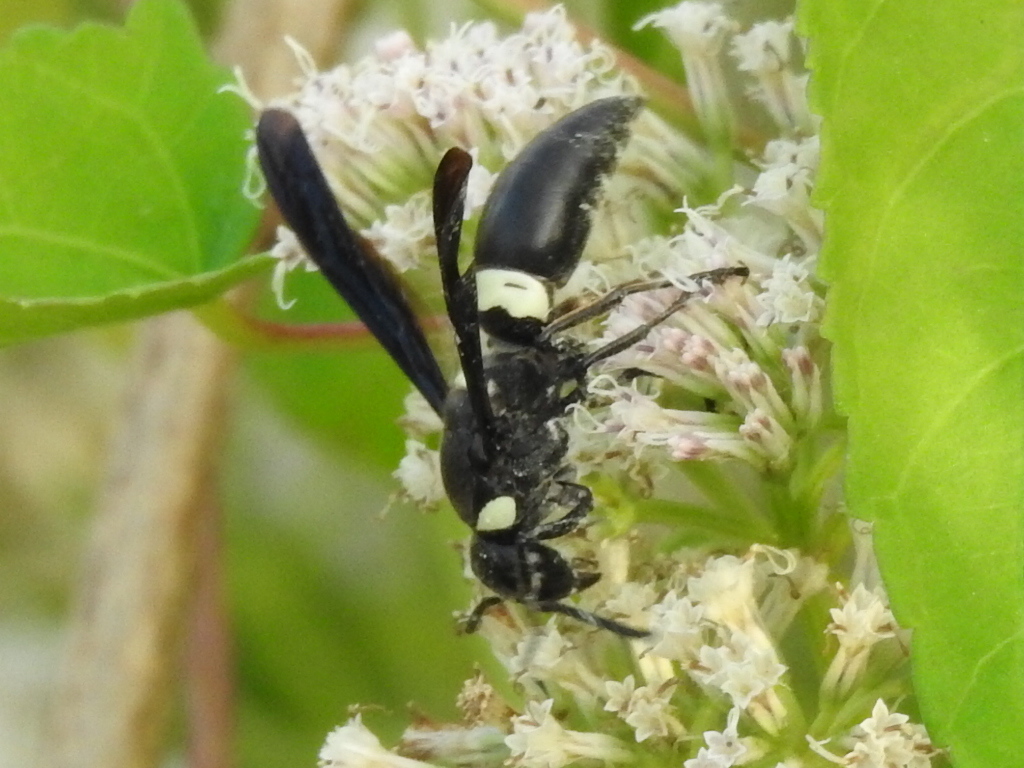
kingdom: Animalia
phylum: Arthropoda
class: Insecta
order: Hymenoptera
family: Eumenidae
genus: Monobia
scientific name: Monobia quadridens
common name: Four-toothed mason wasp
